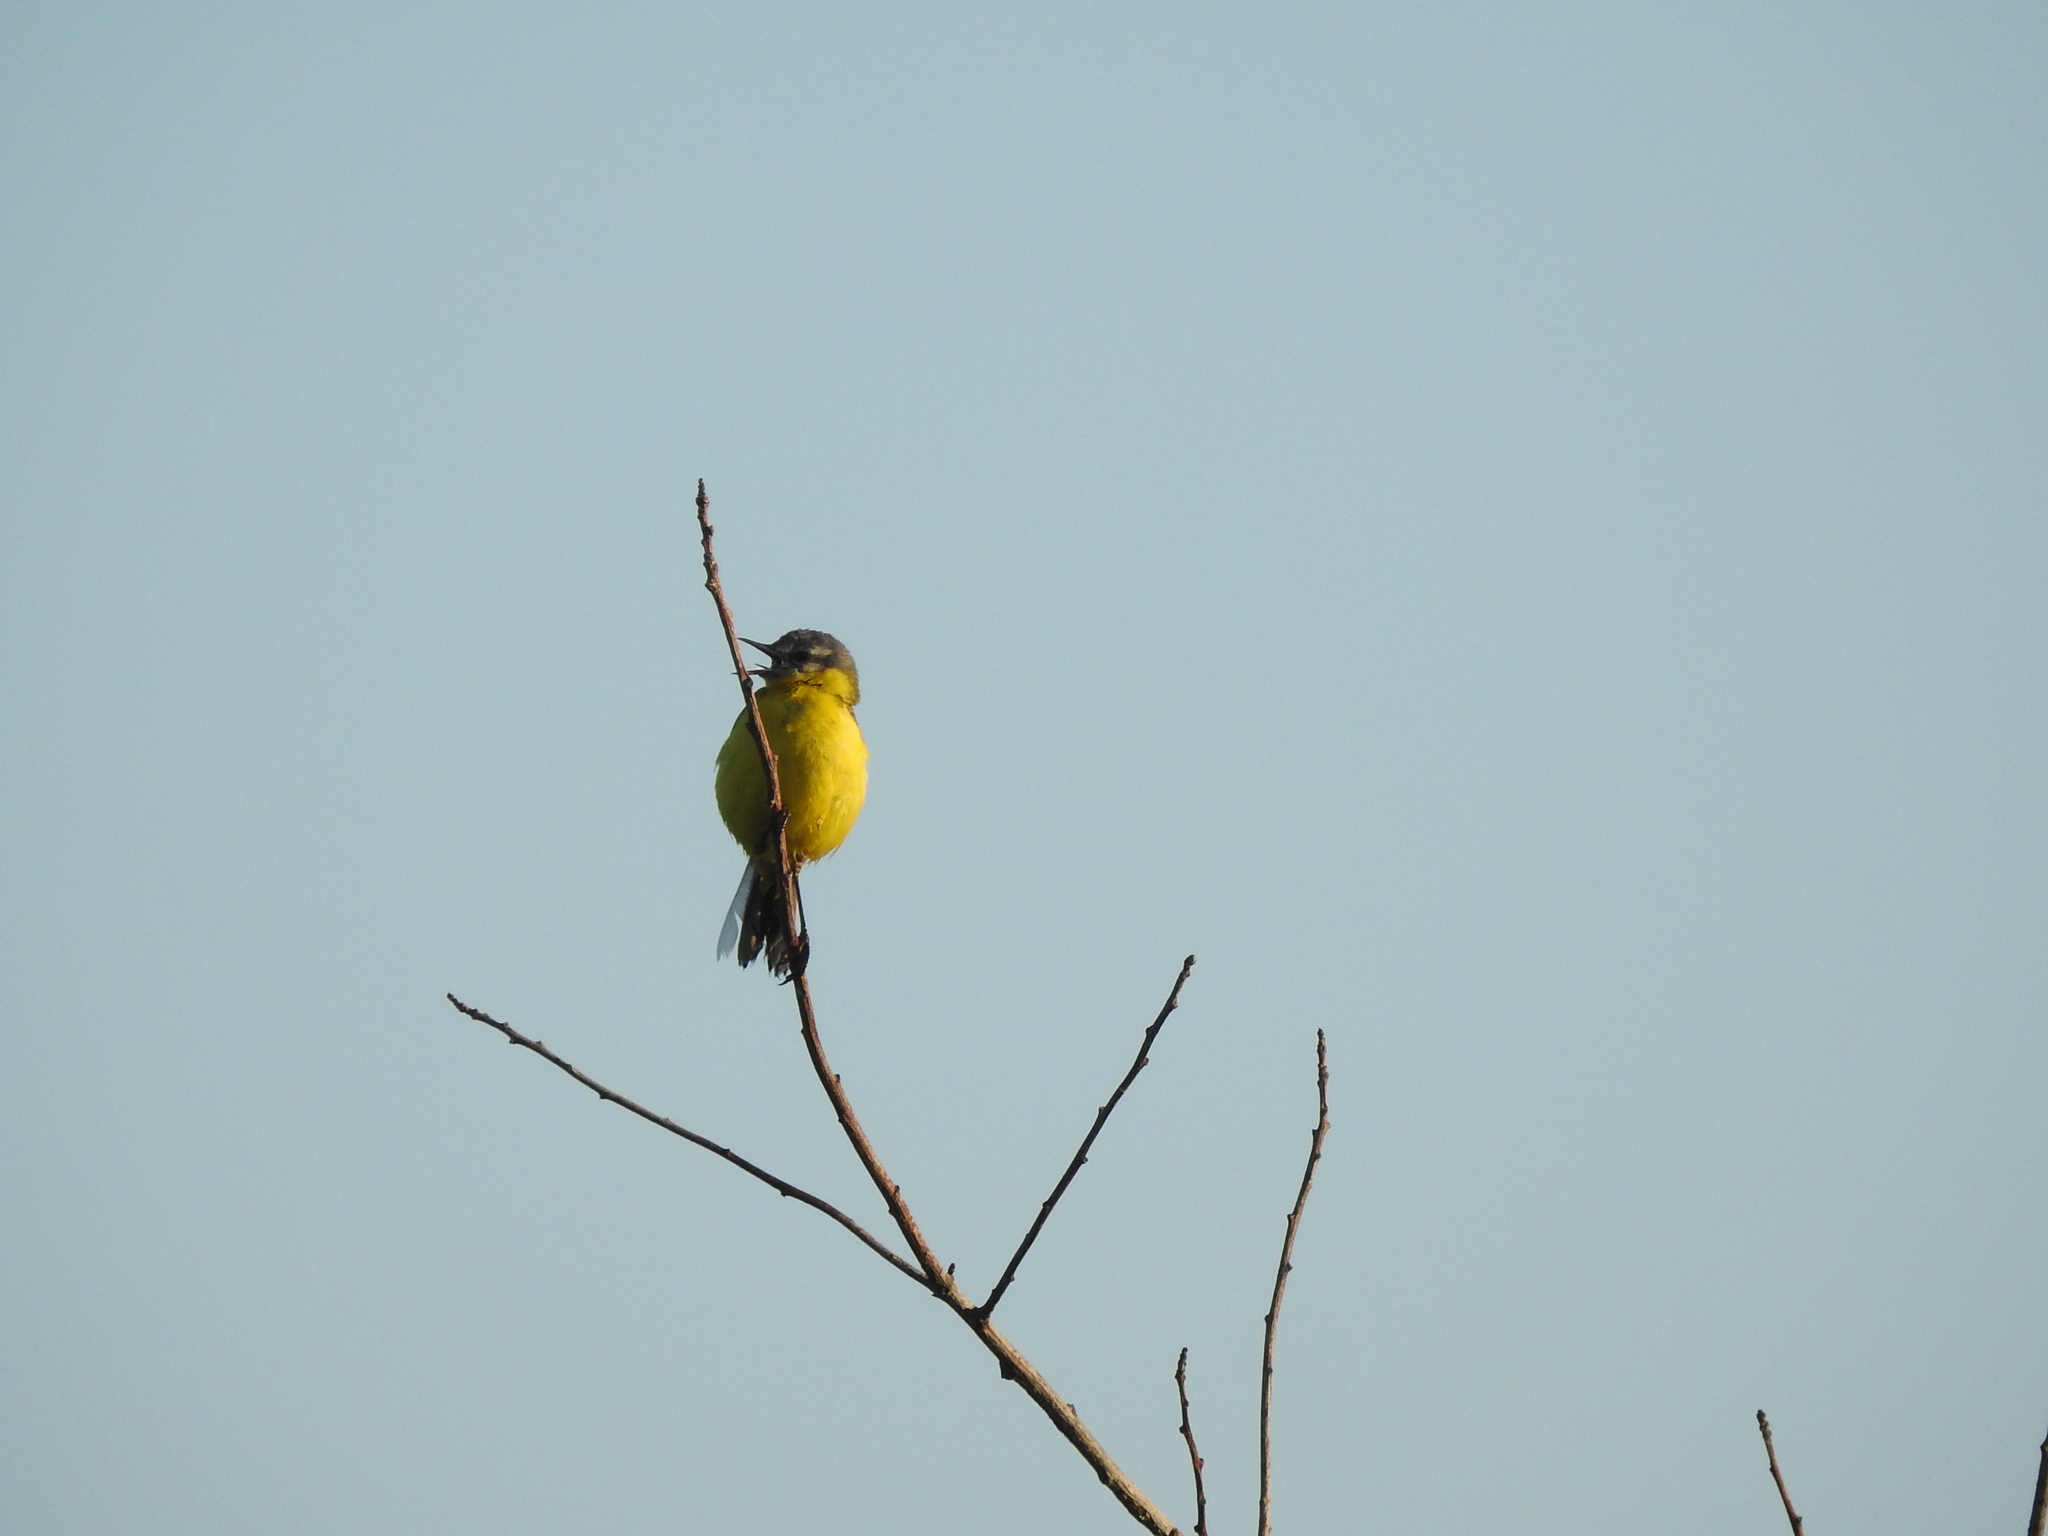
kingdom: Animalia
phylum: Chordata
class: Aves
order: Passeriformes
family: Motacillidae
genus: Motacilla
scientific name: Motacilla flava
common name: Western yellow wagtail
